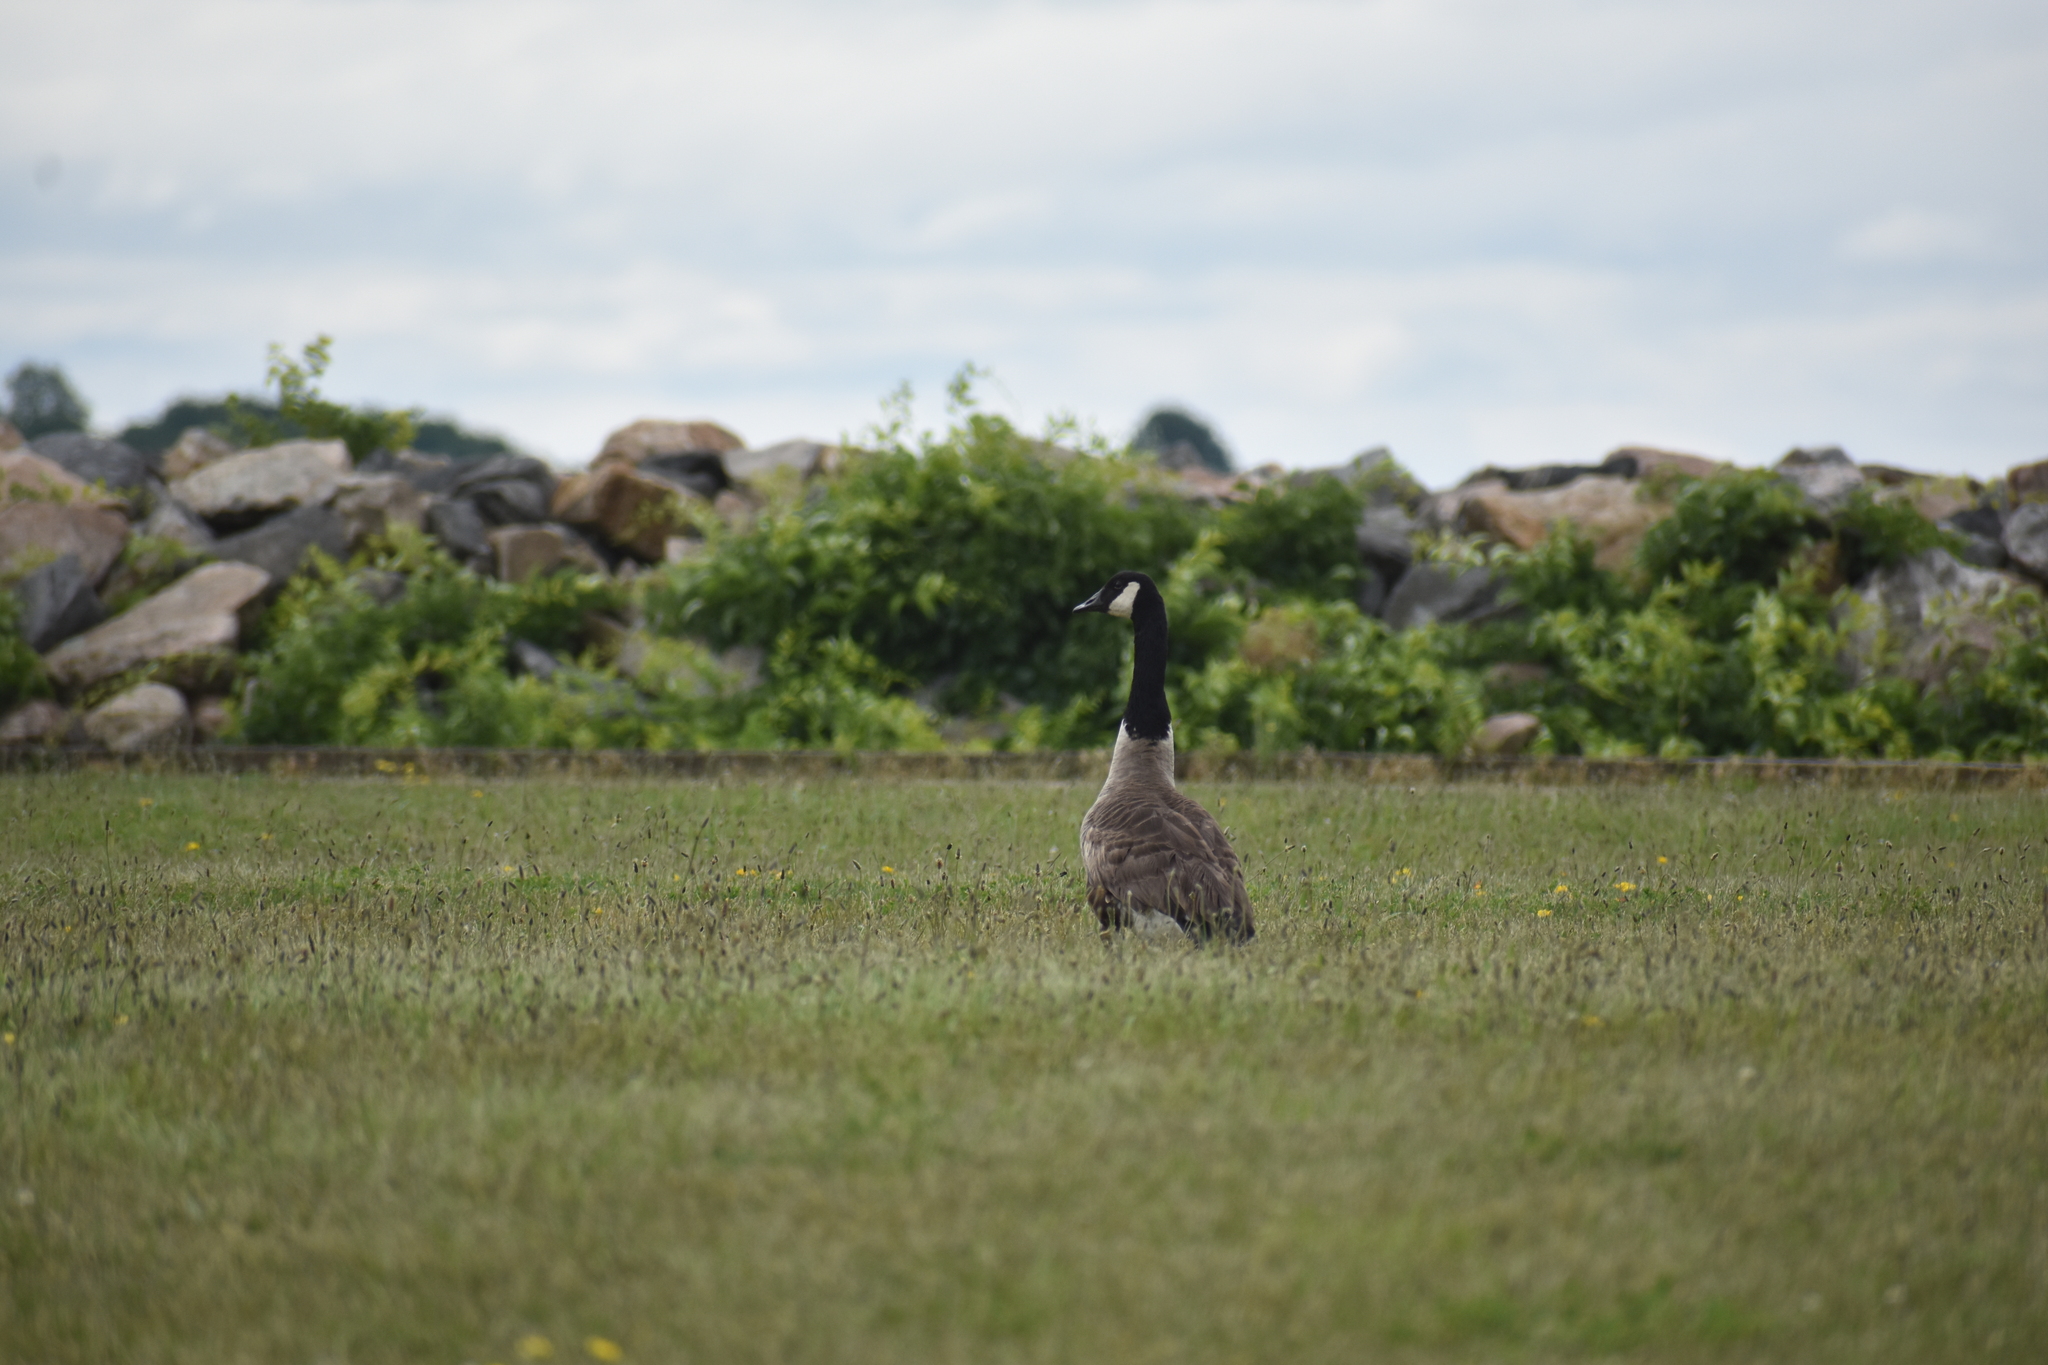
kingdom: Animalia
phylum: Chordata
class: Aves
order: Anseriformes
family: Anatidae
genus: Branta
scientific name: Branta canadensis
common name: Canada goose
